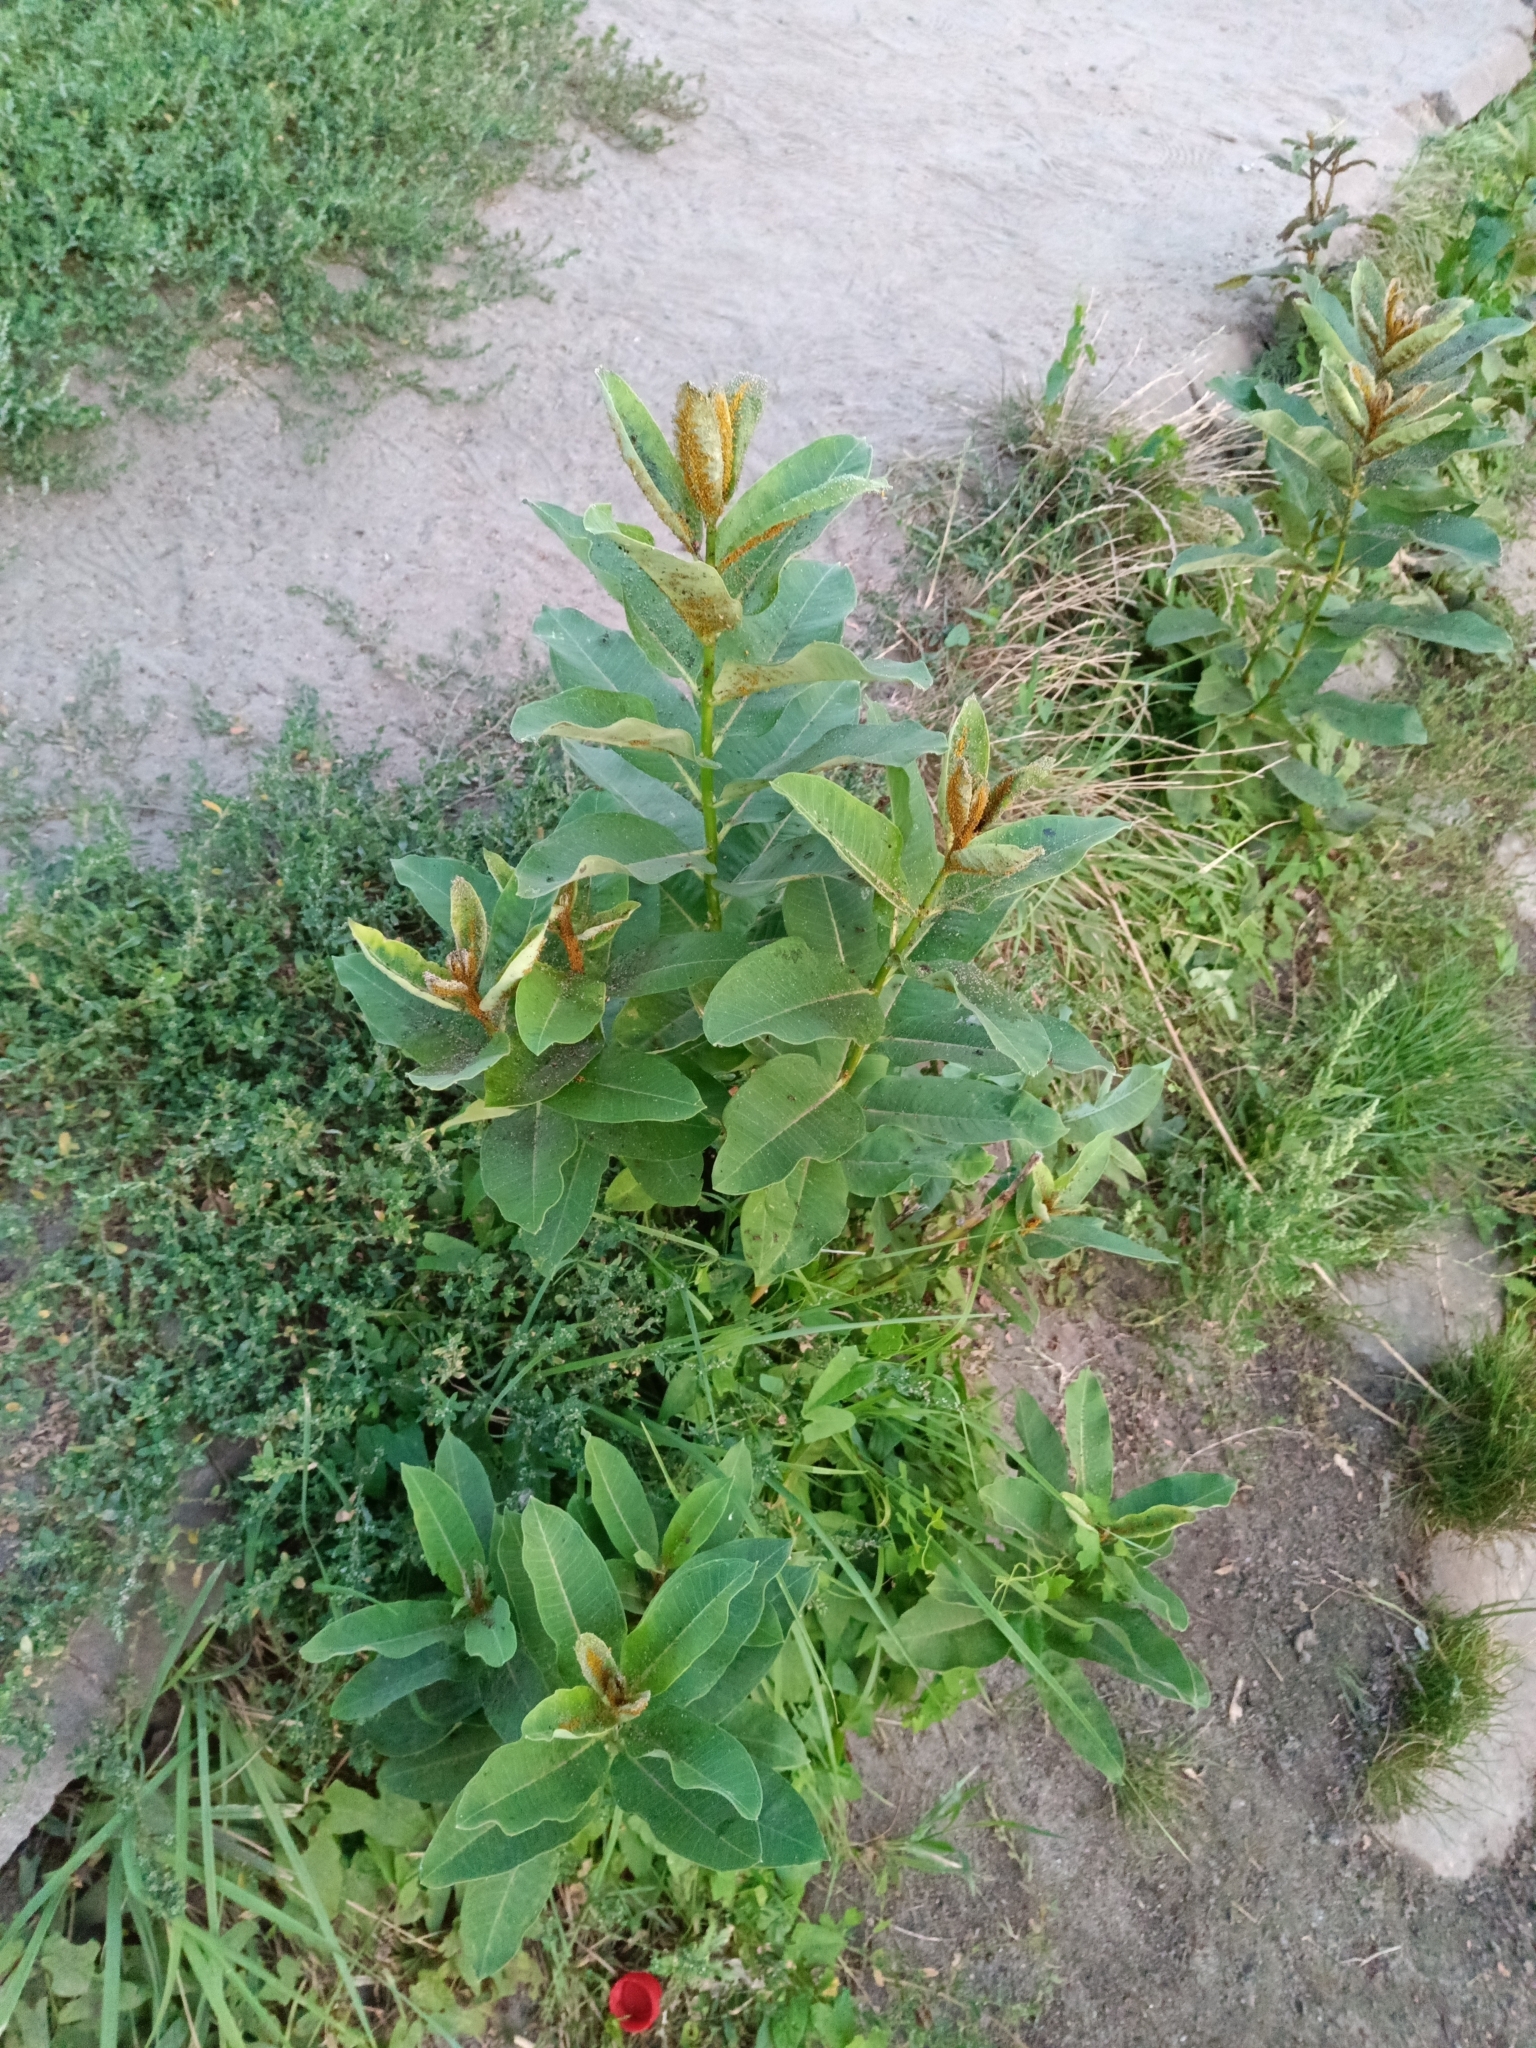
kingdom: Plantae
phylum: Tracheophyta
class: Magnoliopsida
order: Gentianales
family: Apocynaceae
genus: Asclepias
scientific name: Asclepias syriaca
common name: Common milkweed
